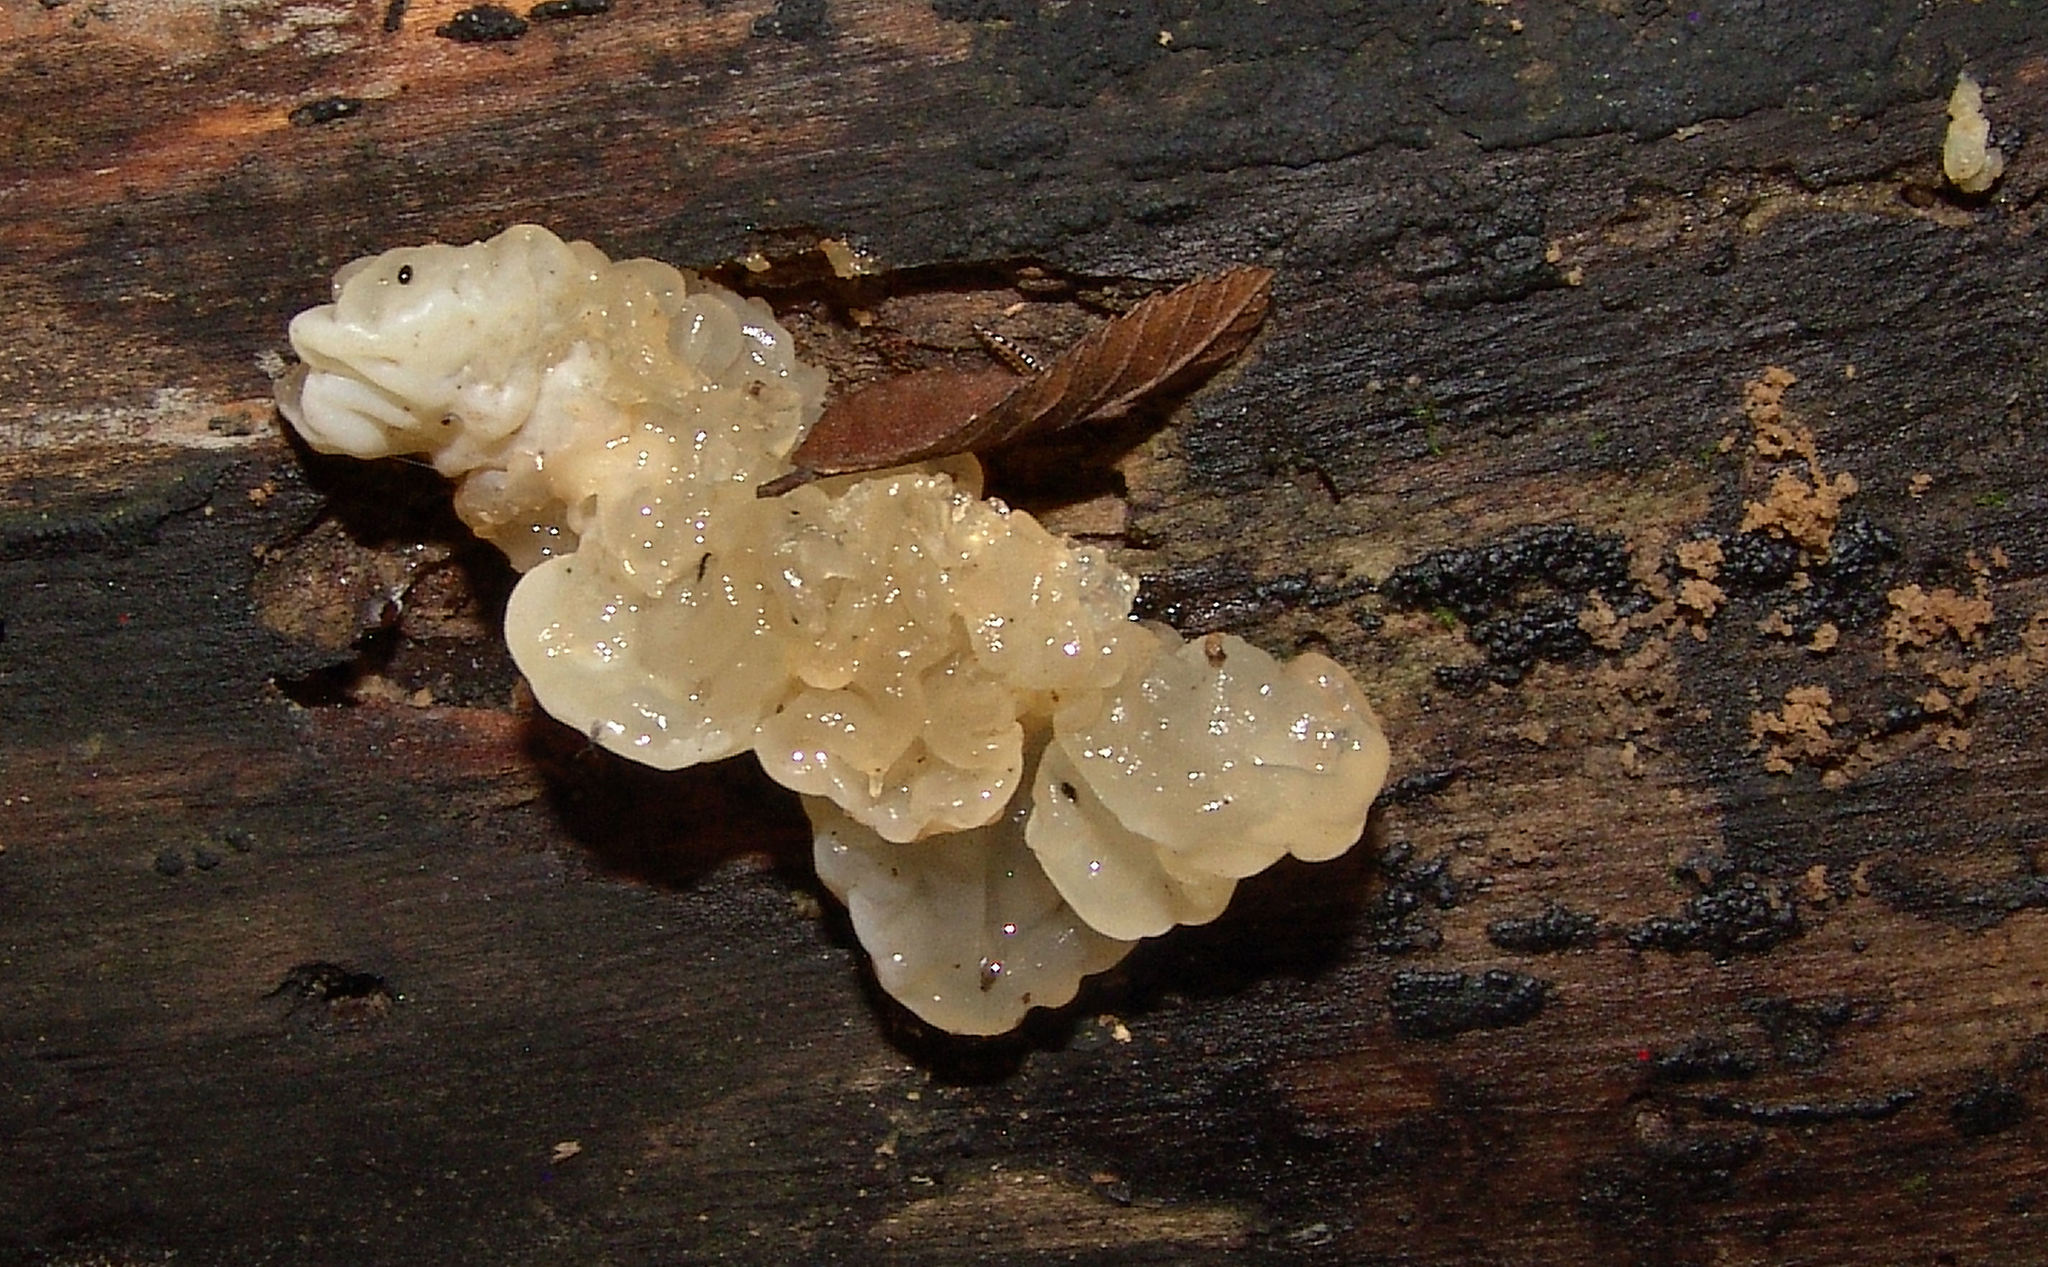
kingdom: Fungi
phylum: Basidiomycota
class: Agaricomycetes
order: Auriculariales
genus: Ductifera
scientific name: Ductifera pululahuana
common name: White jelly fungus
